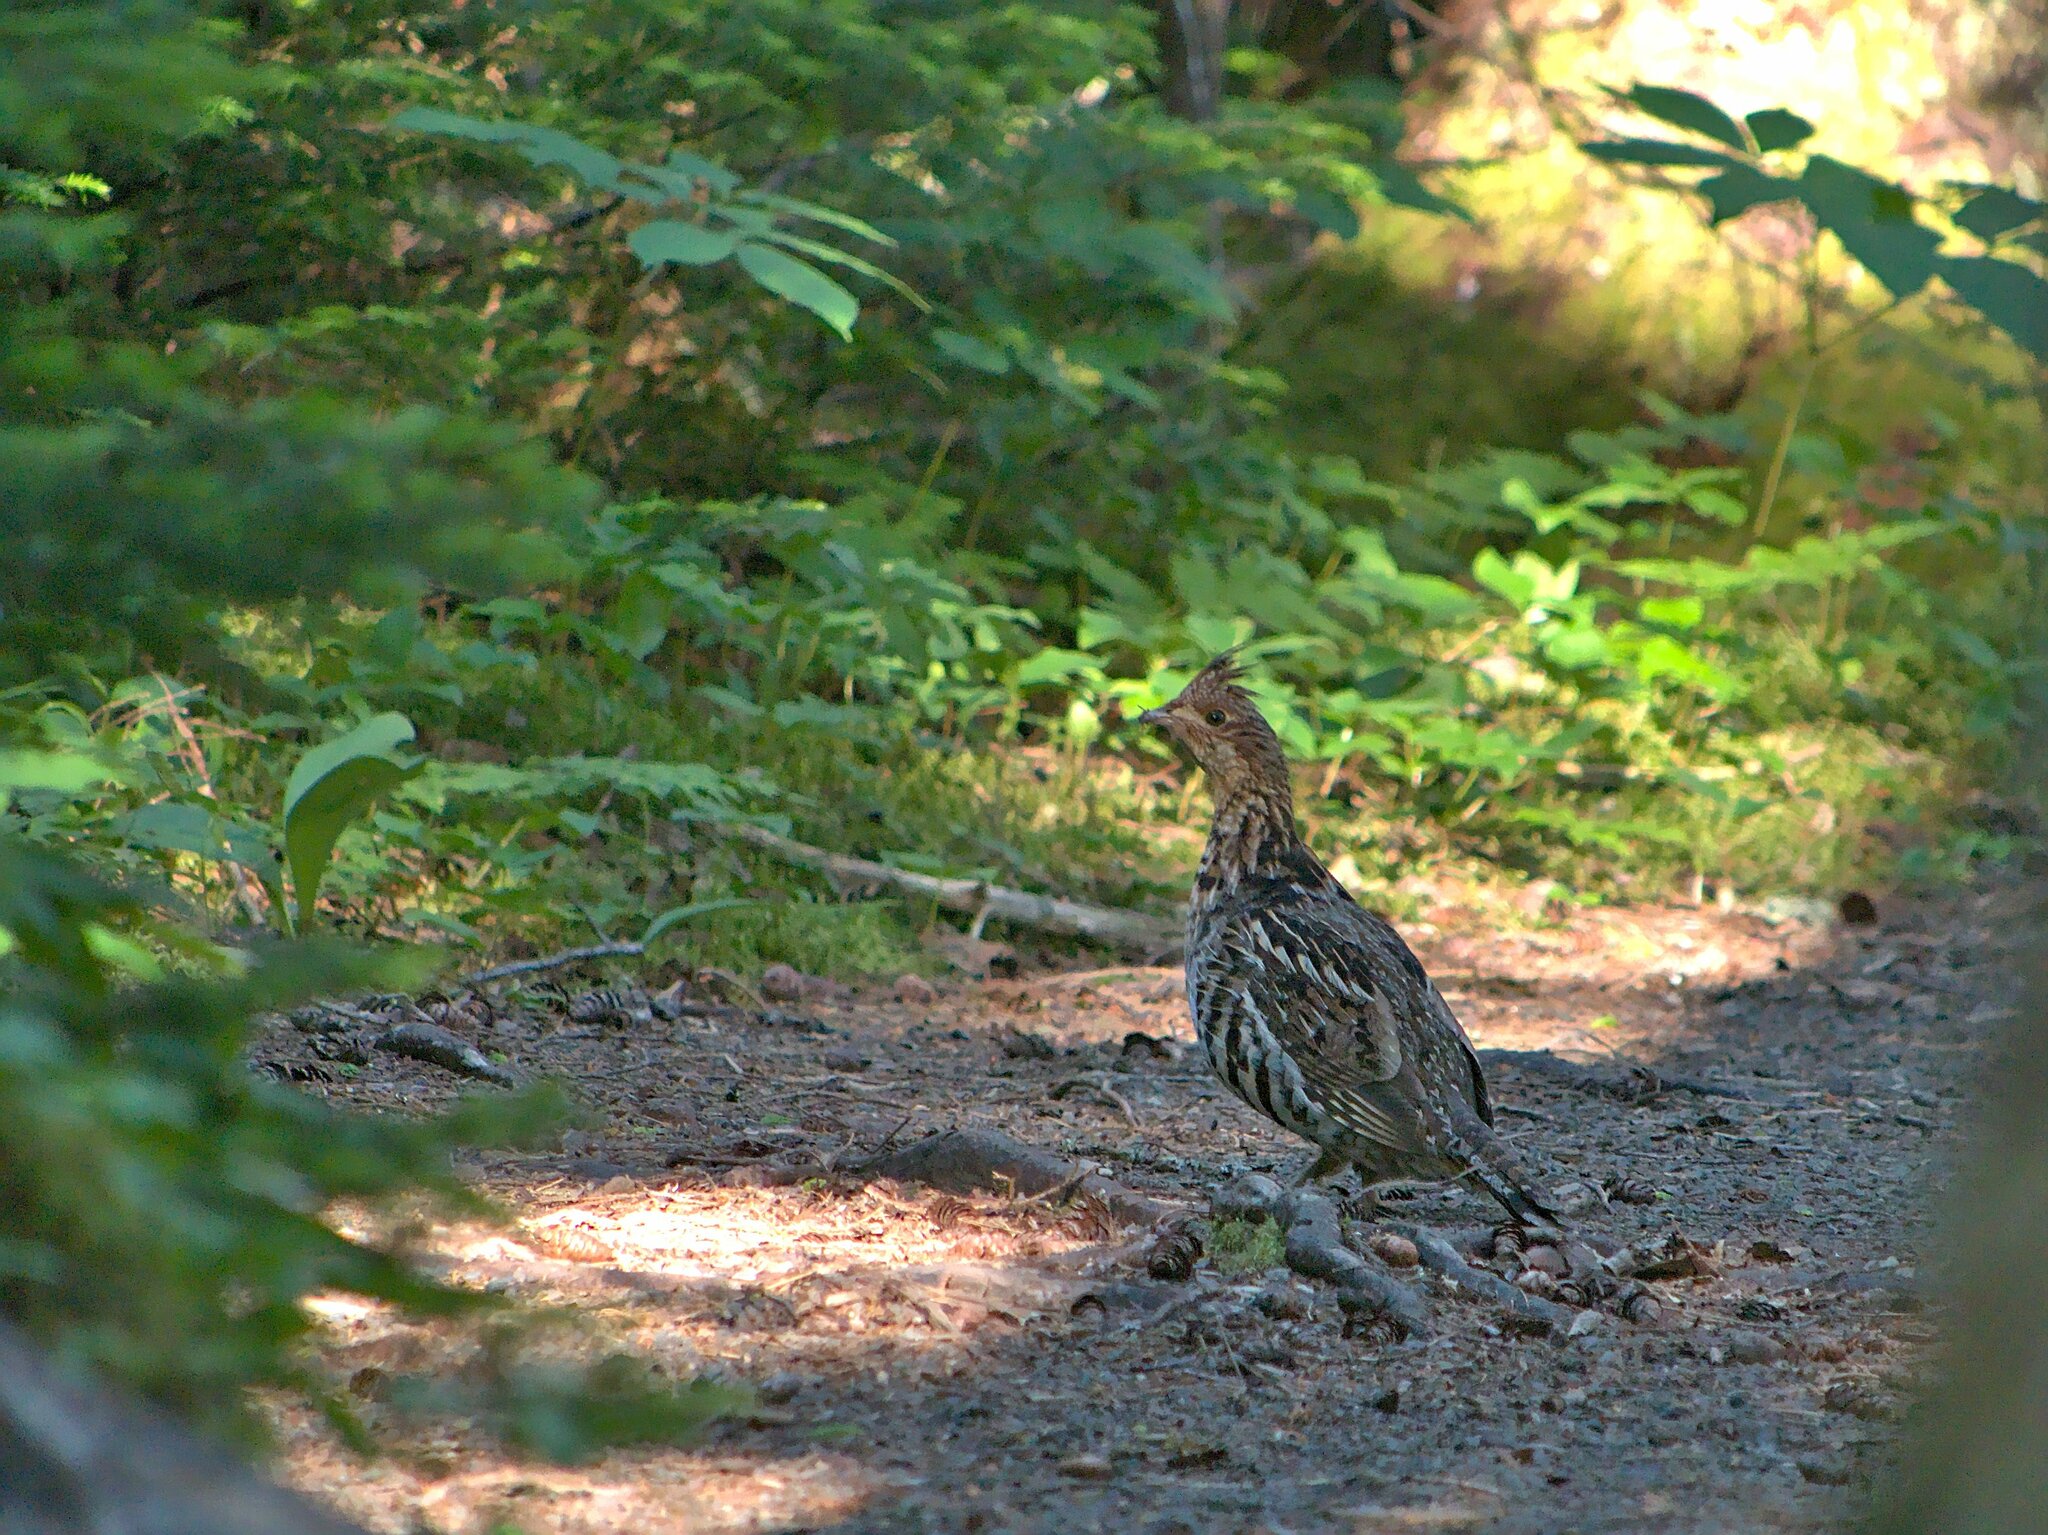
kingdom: Animalia
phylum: Chordata
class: Aves
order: Galliformes
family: Phasianidae
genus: Bonasa
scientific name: Bonasa umbellus
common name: Ruffed grouse
